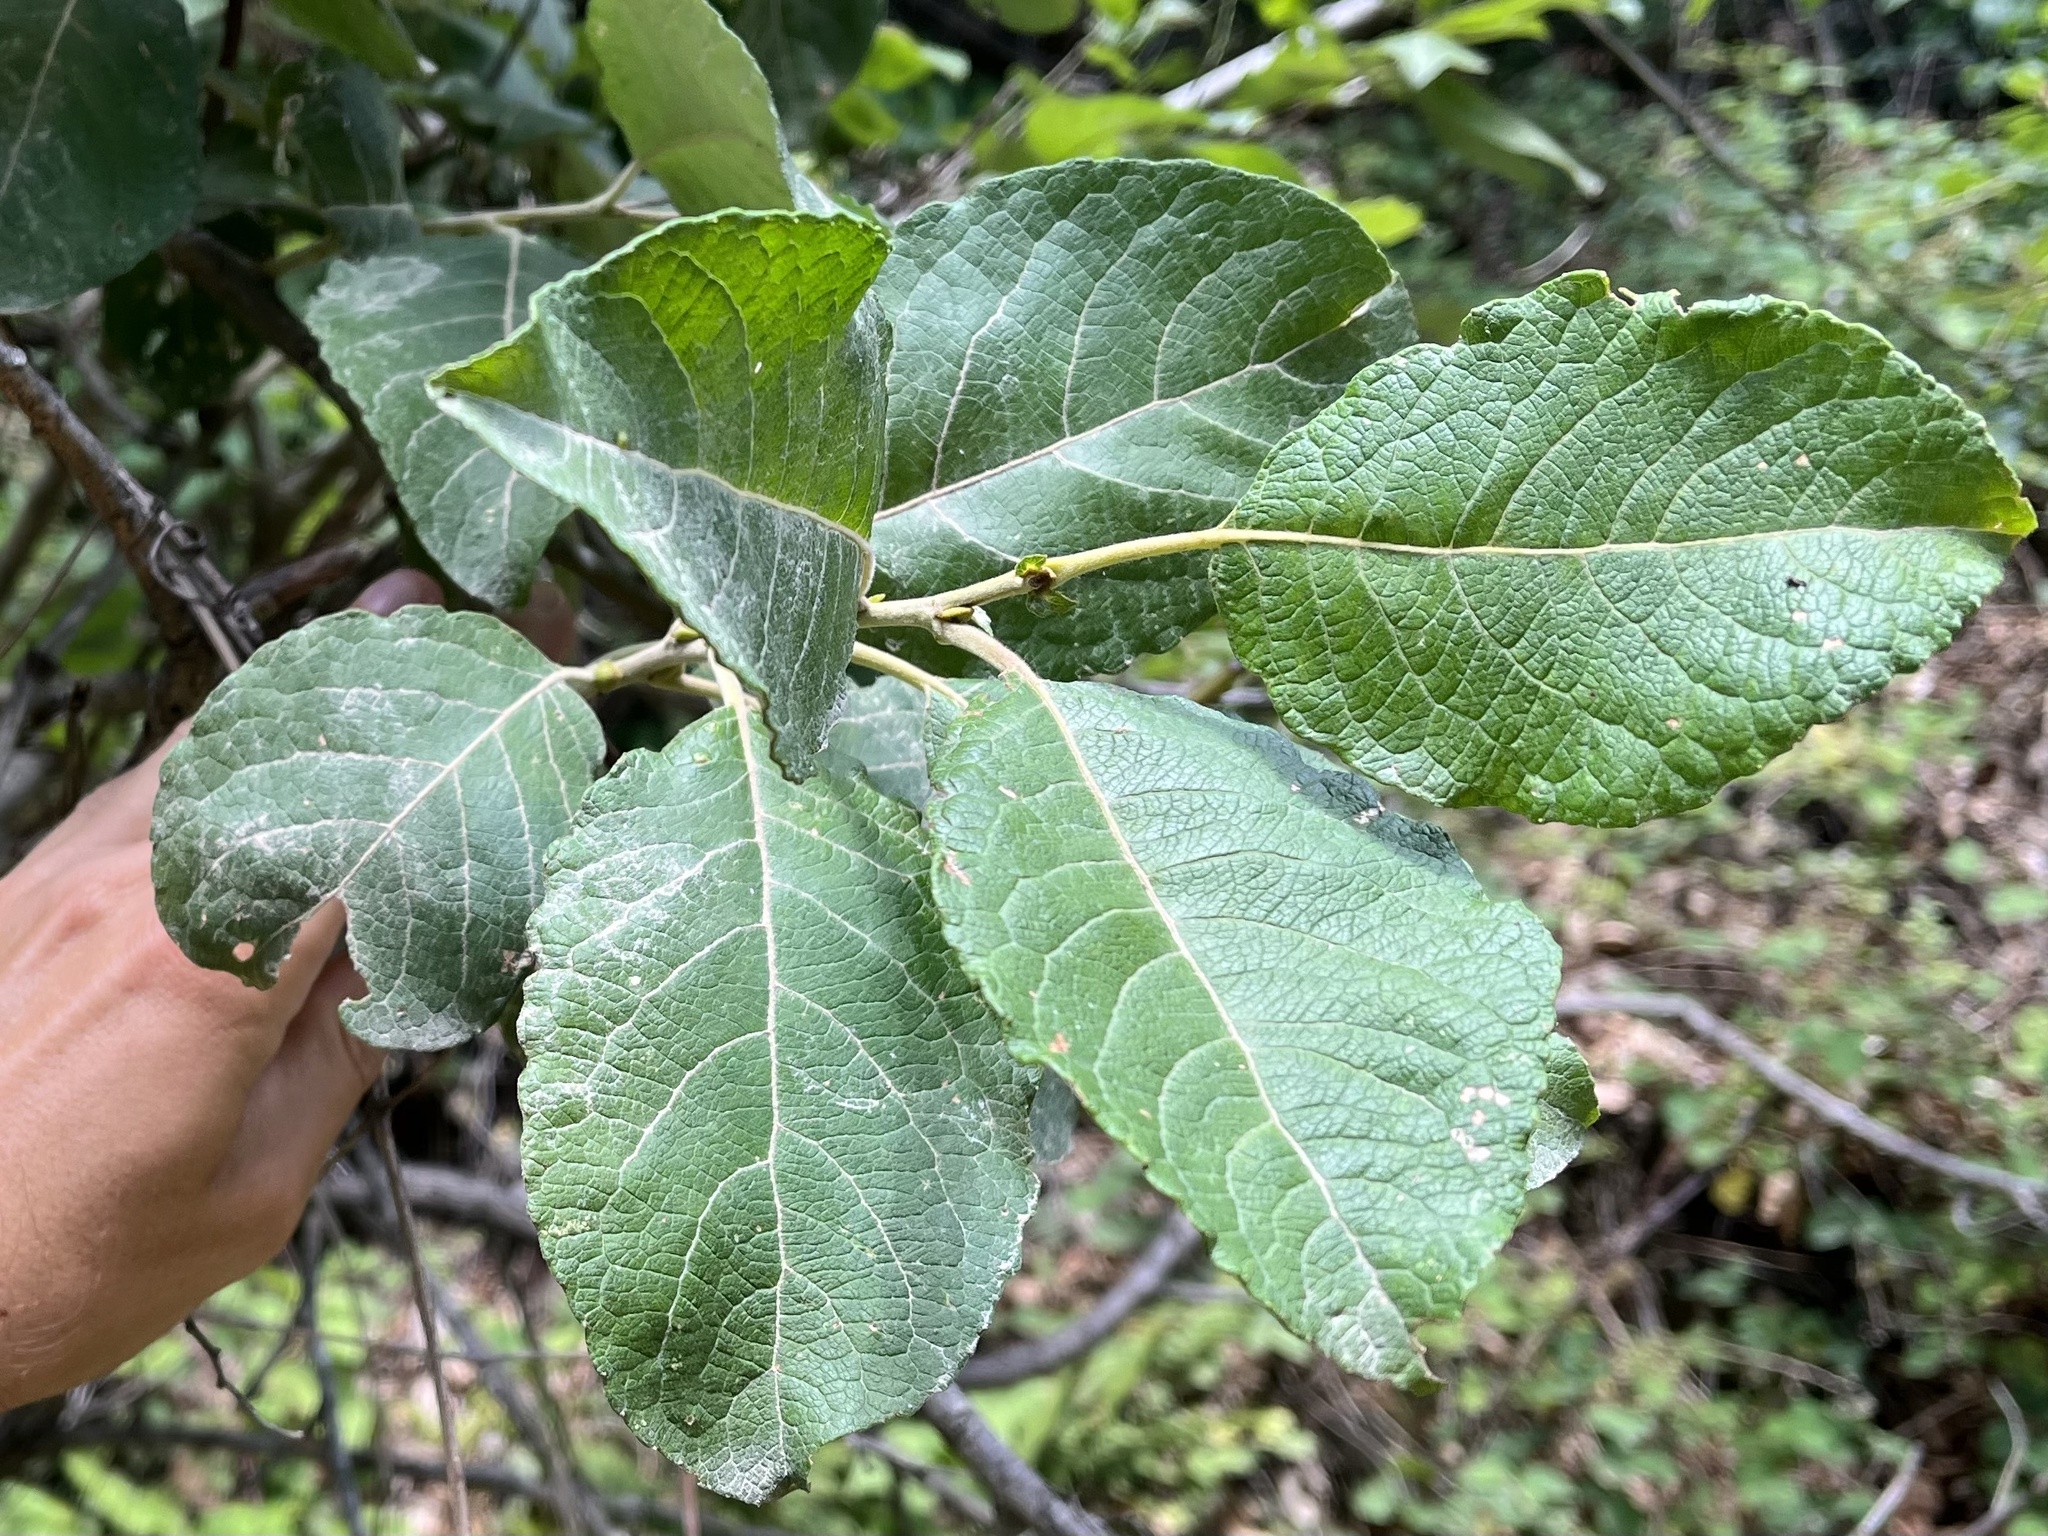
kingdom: Plantae
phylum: Tracheophyta
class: Magnoliopsida
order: Malpighiales
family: Salicaceae
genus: Salix
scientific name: Salix caprea
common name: Goat willow
